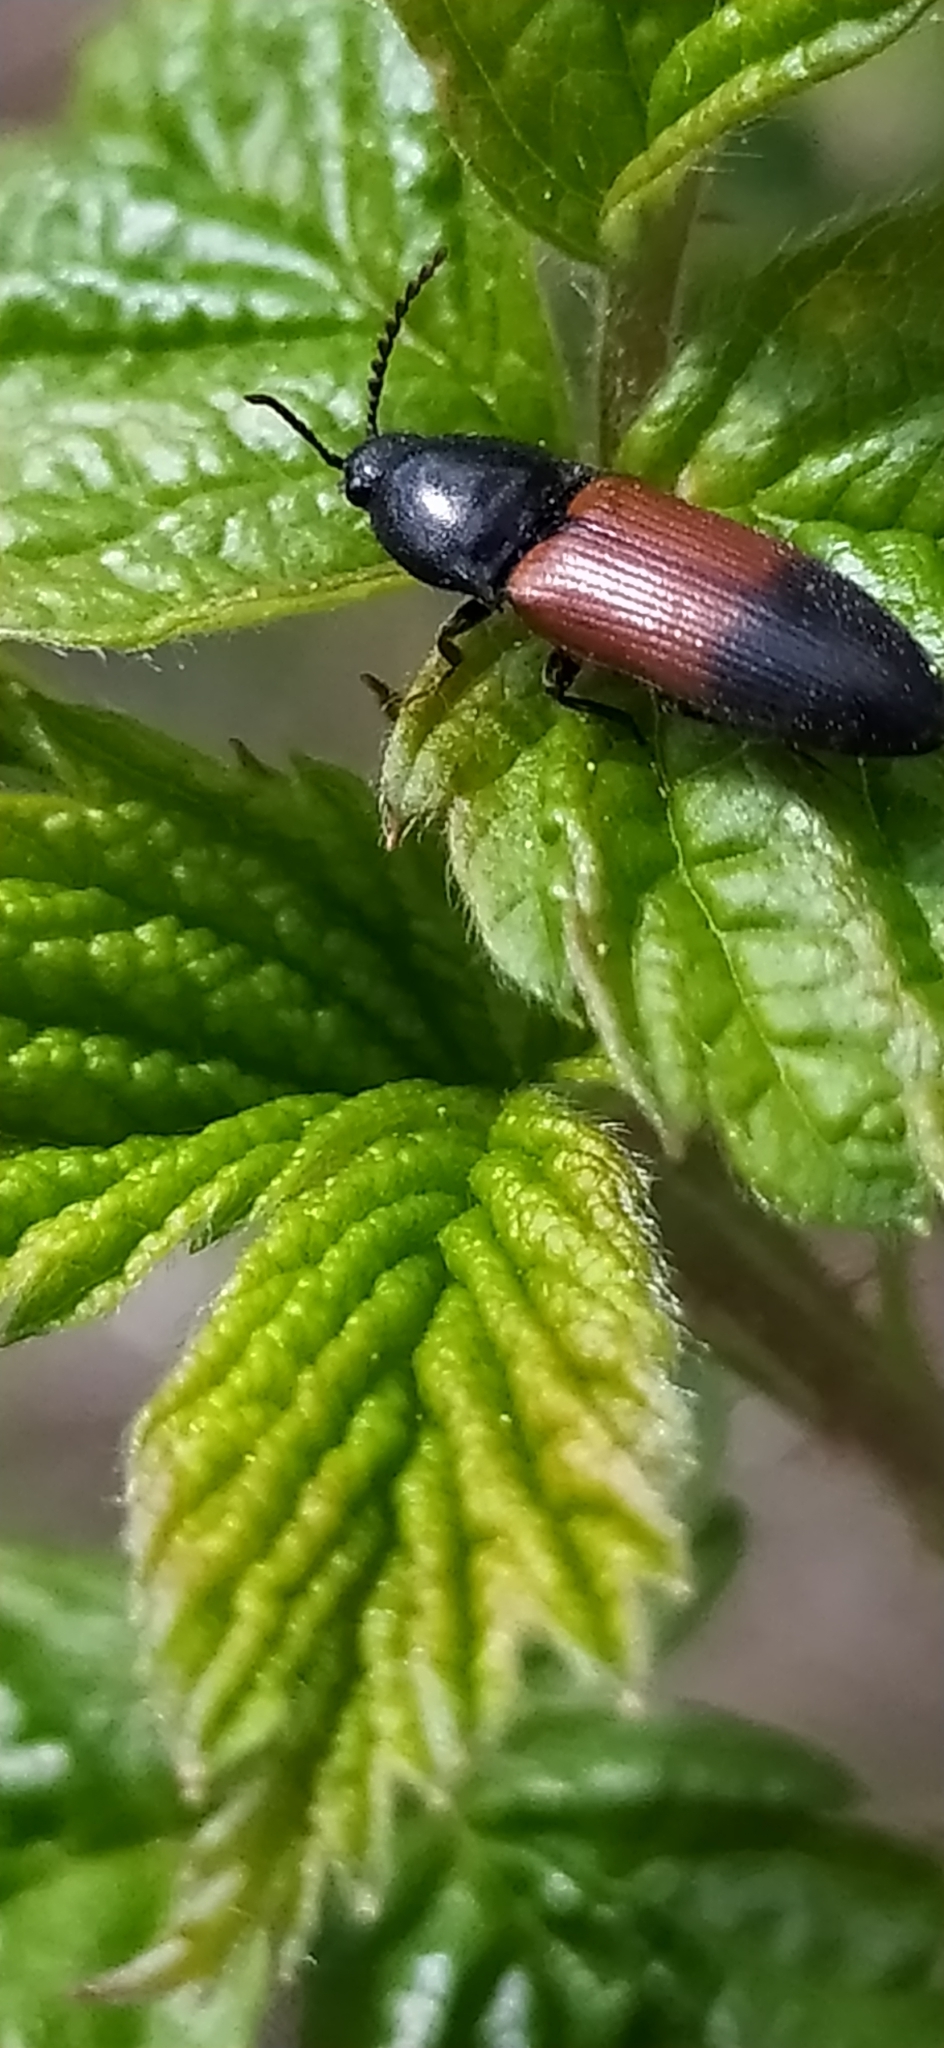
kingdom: Animalia
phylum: Arthropoda
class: Insecta
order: Coleoptera
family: Elateridae
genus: Ampedus
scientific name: Ampedus balteatus
